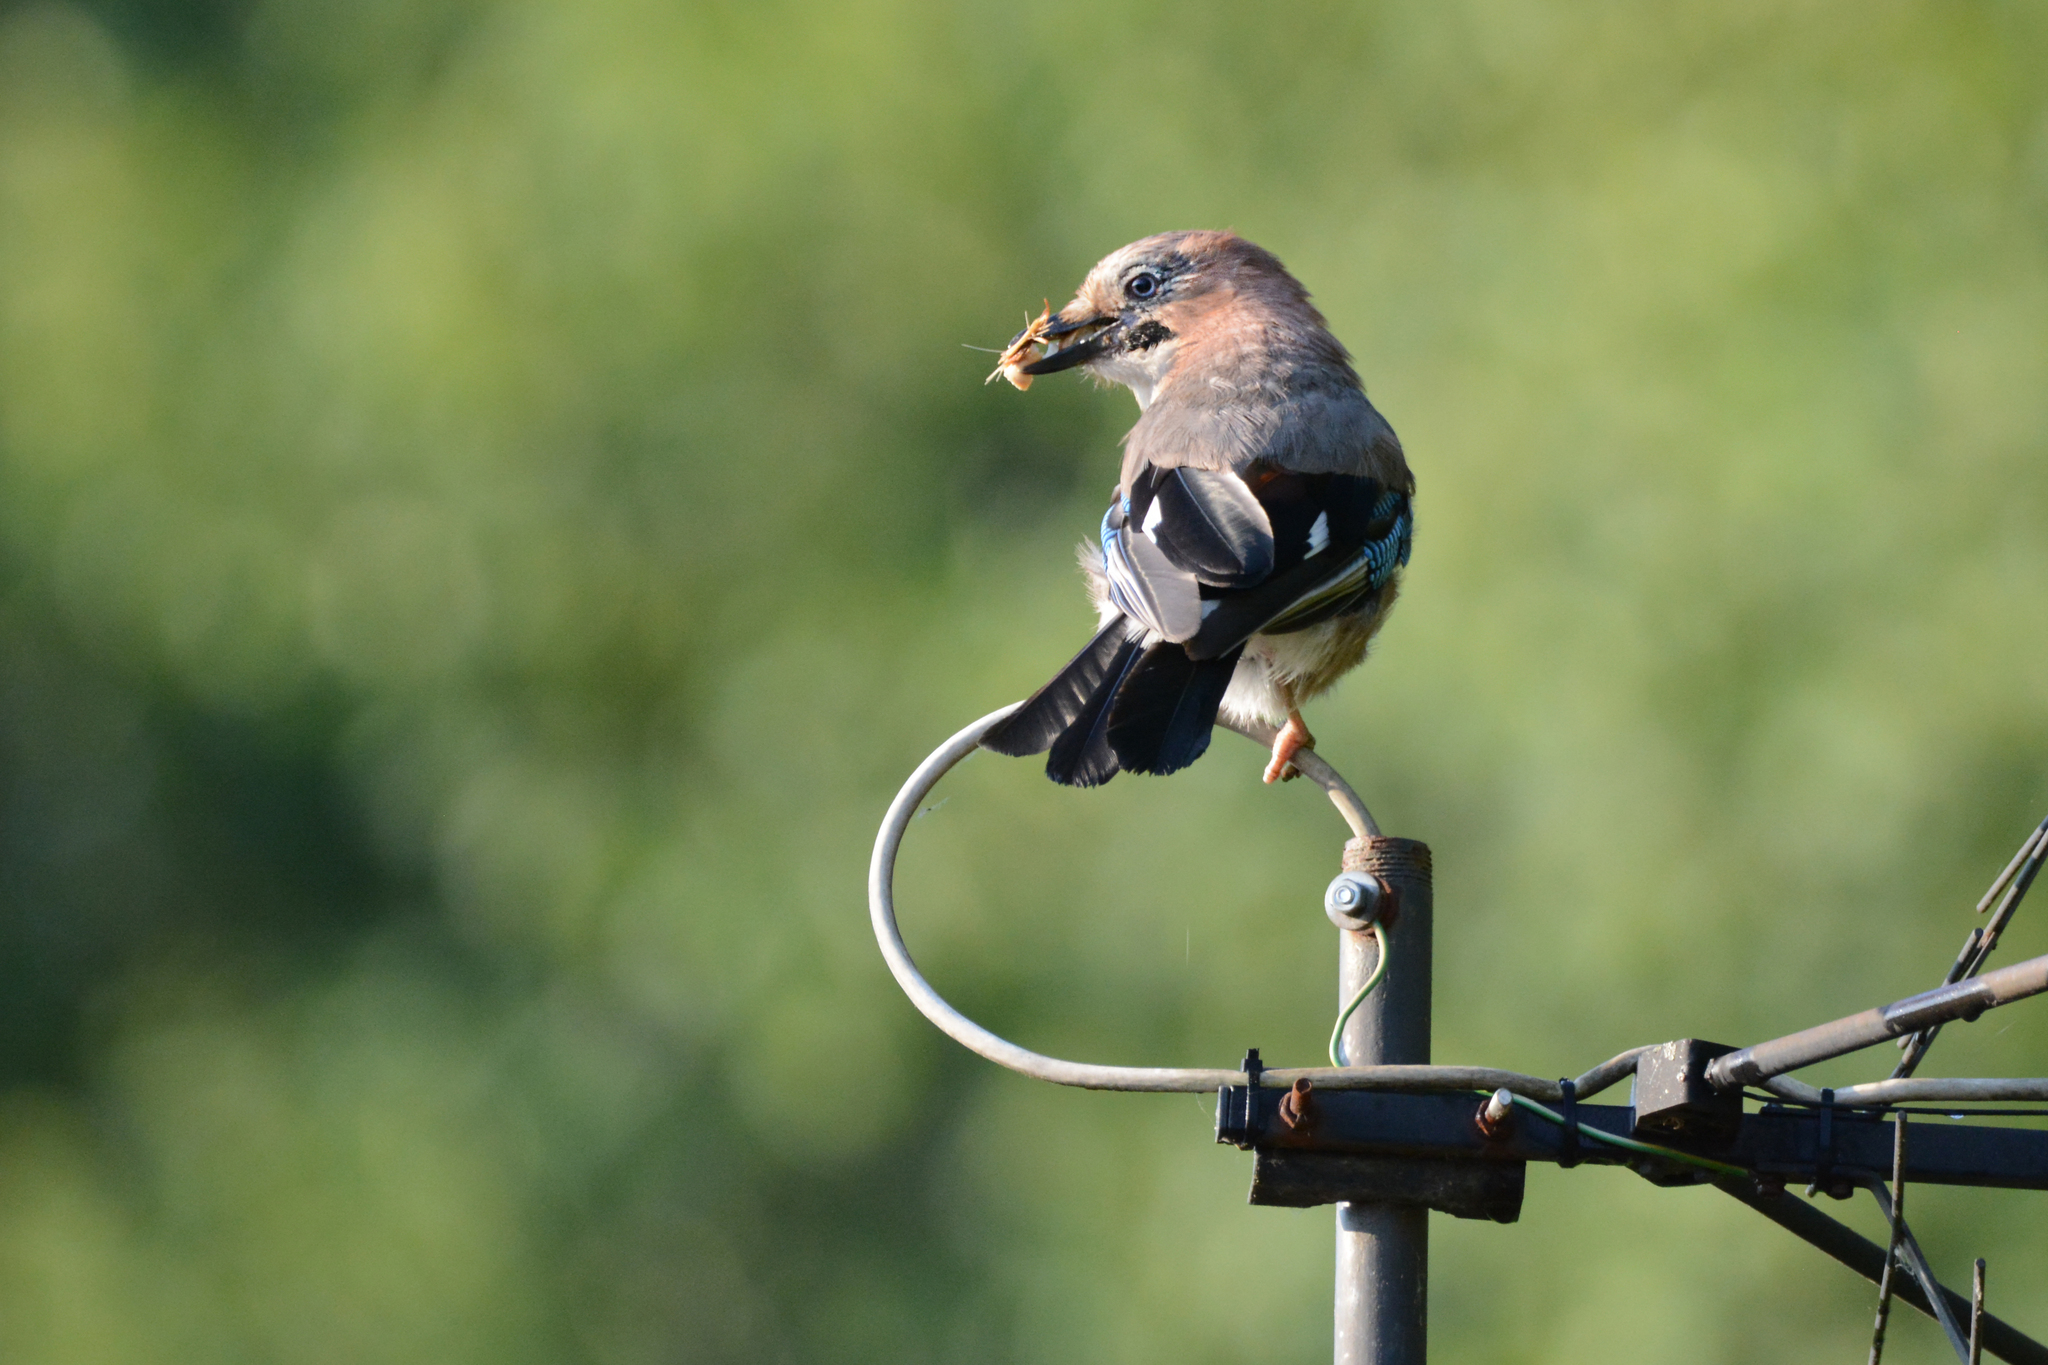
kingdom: Animalia
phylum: Chordata
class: Aves
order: Passeriformes
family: Corvidae
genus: Garrulus
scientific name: Garrulus glandarius
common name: Eurasian jay
